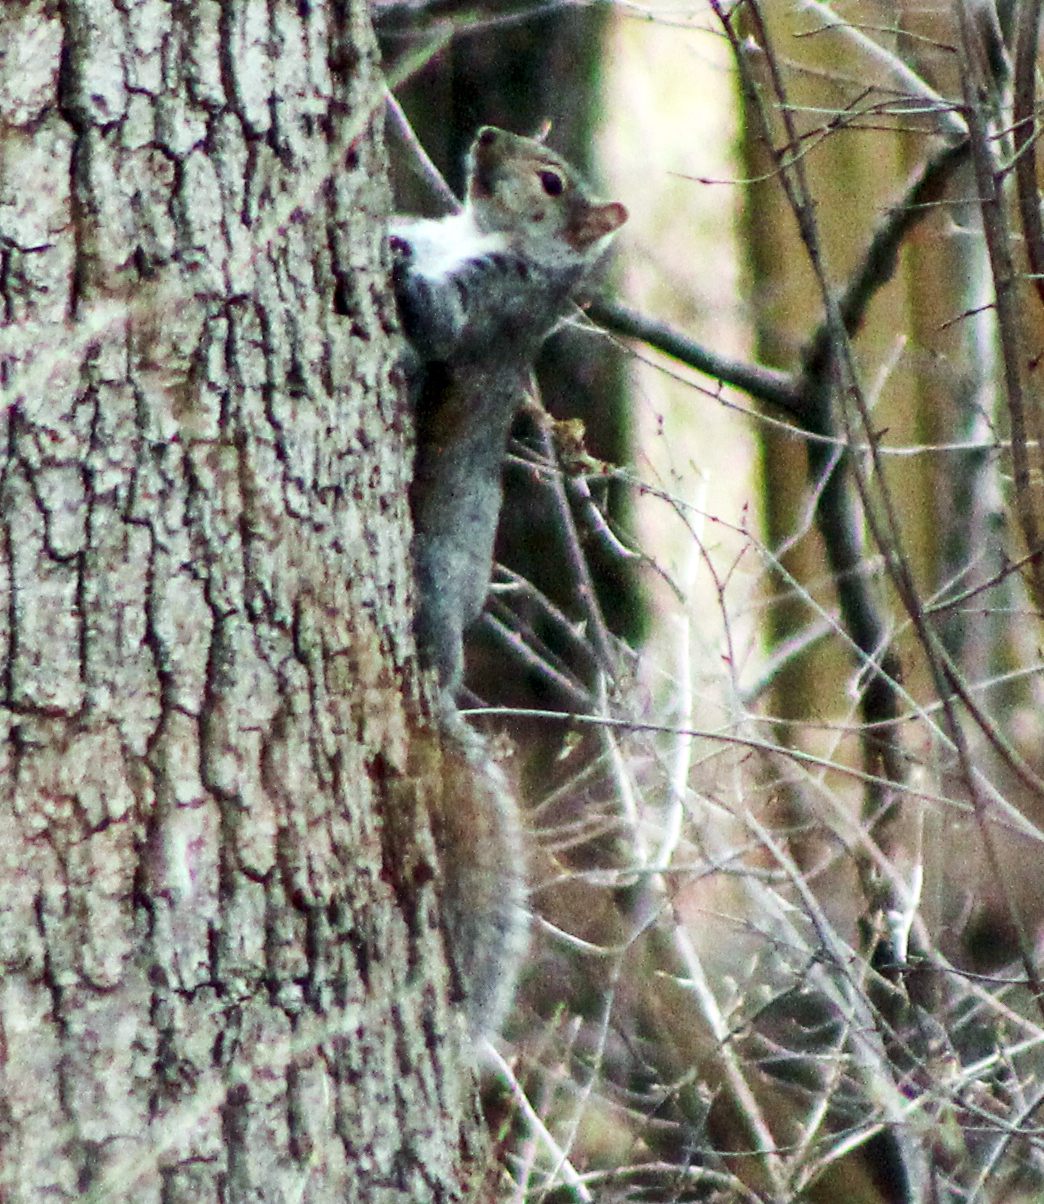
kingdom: Animalia
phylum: Chordata
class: Mammalia
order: Rodentia
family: Sciuridae
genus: Sciurus
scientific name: Sciurus carolinensis
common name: Eastern gray squirrel
